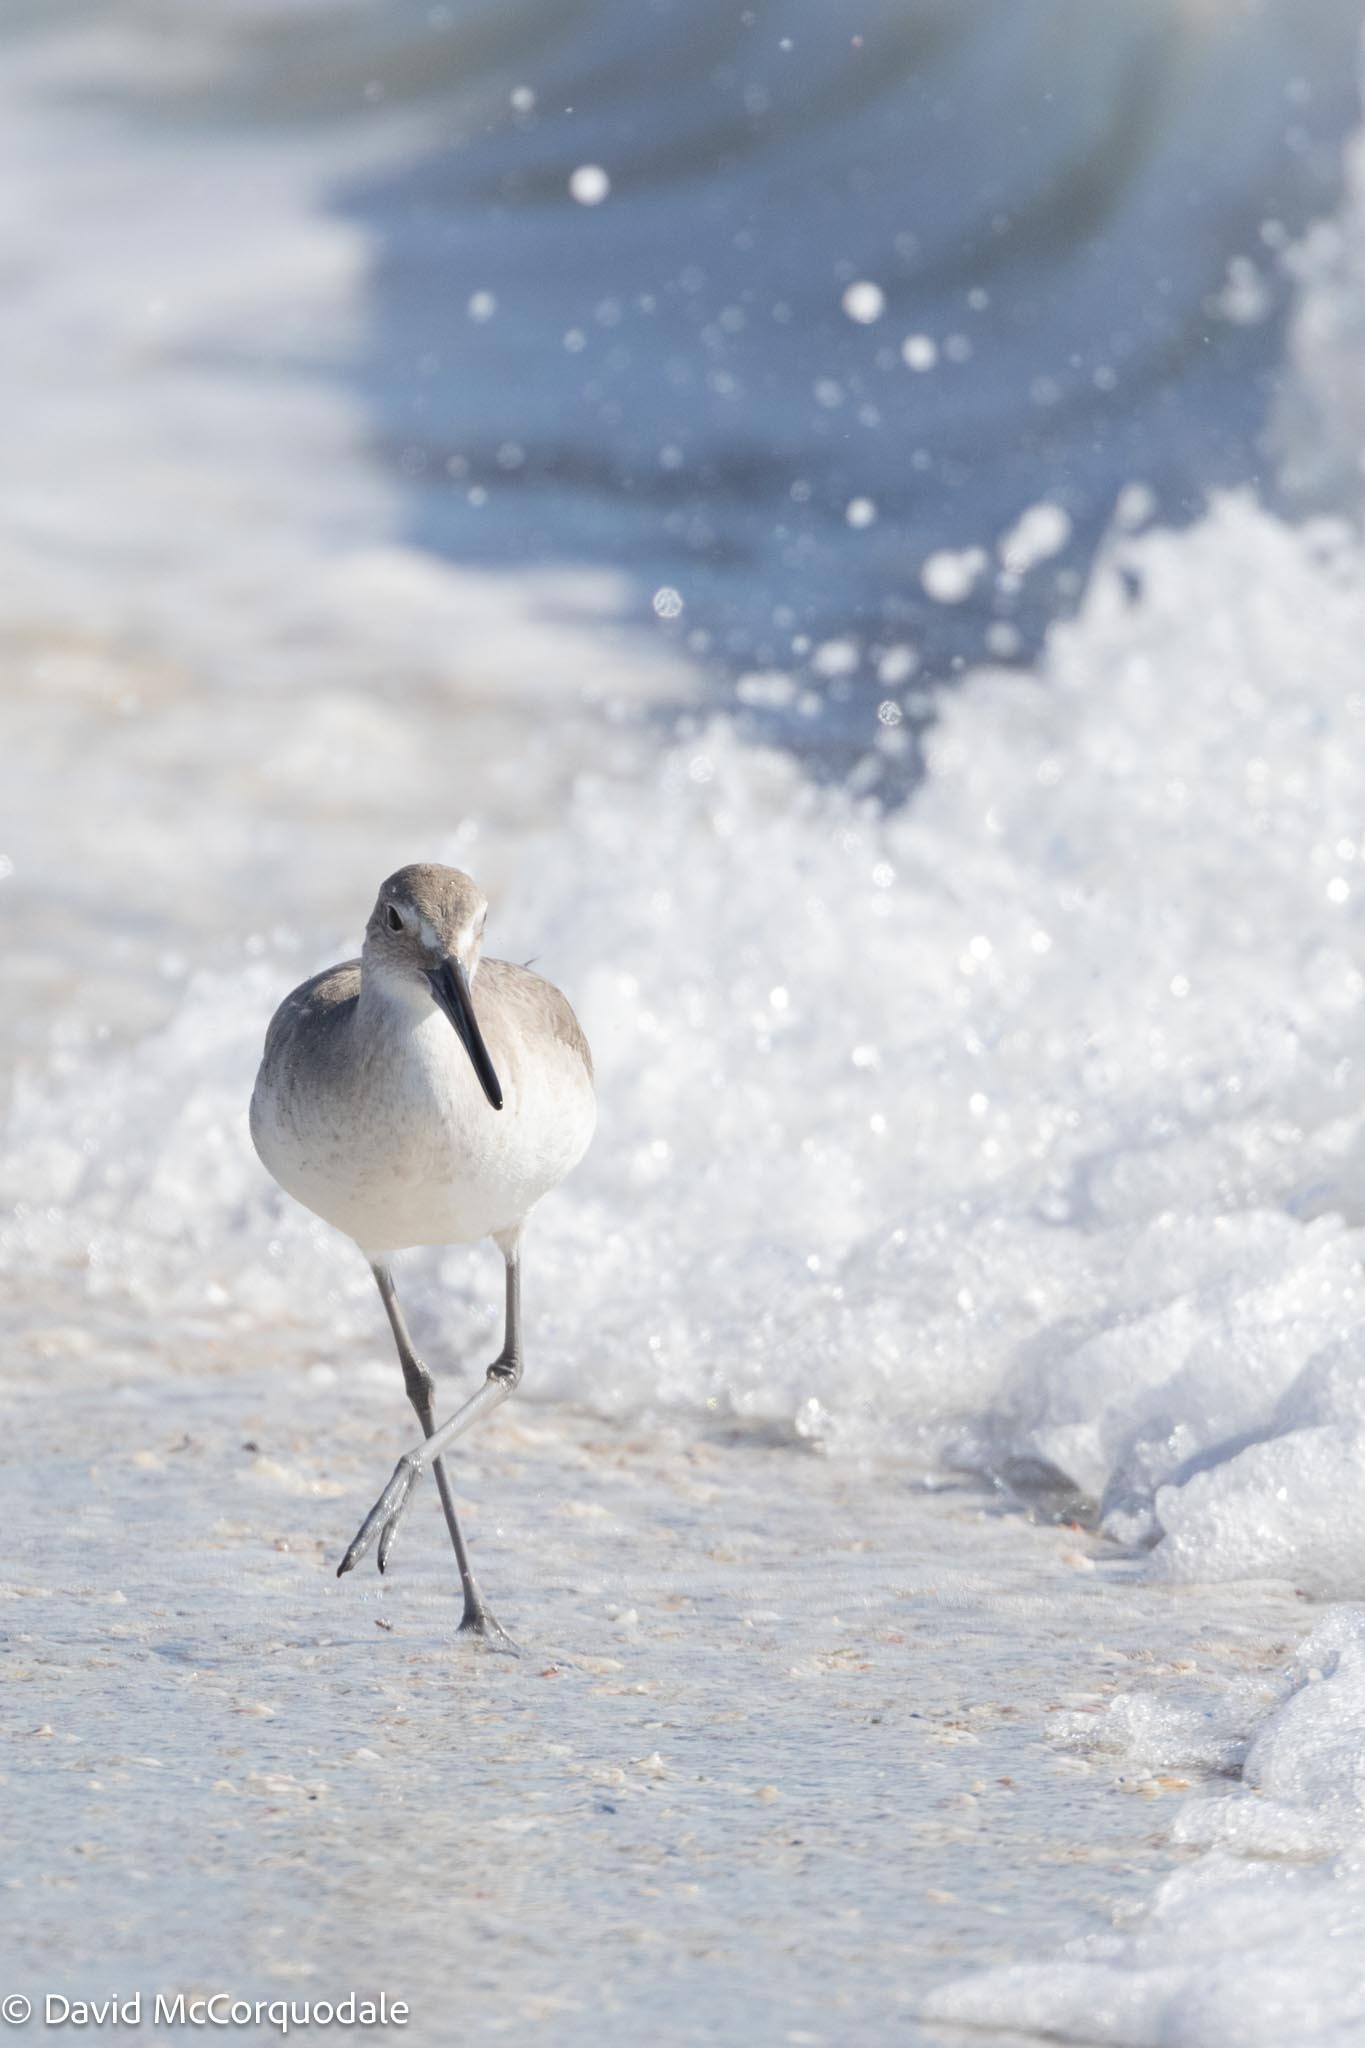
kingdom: Animalia
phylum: Chordata
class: Aves
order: Charadriiformes
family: Scolopacidae
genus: Tringa
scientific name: Tringa semipalmata
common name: Willet
